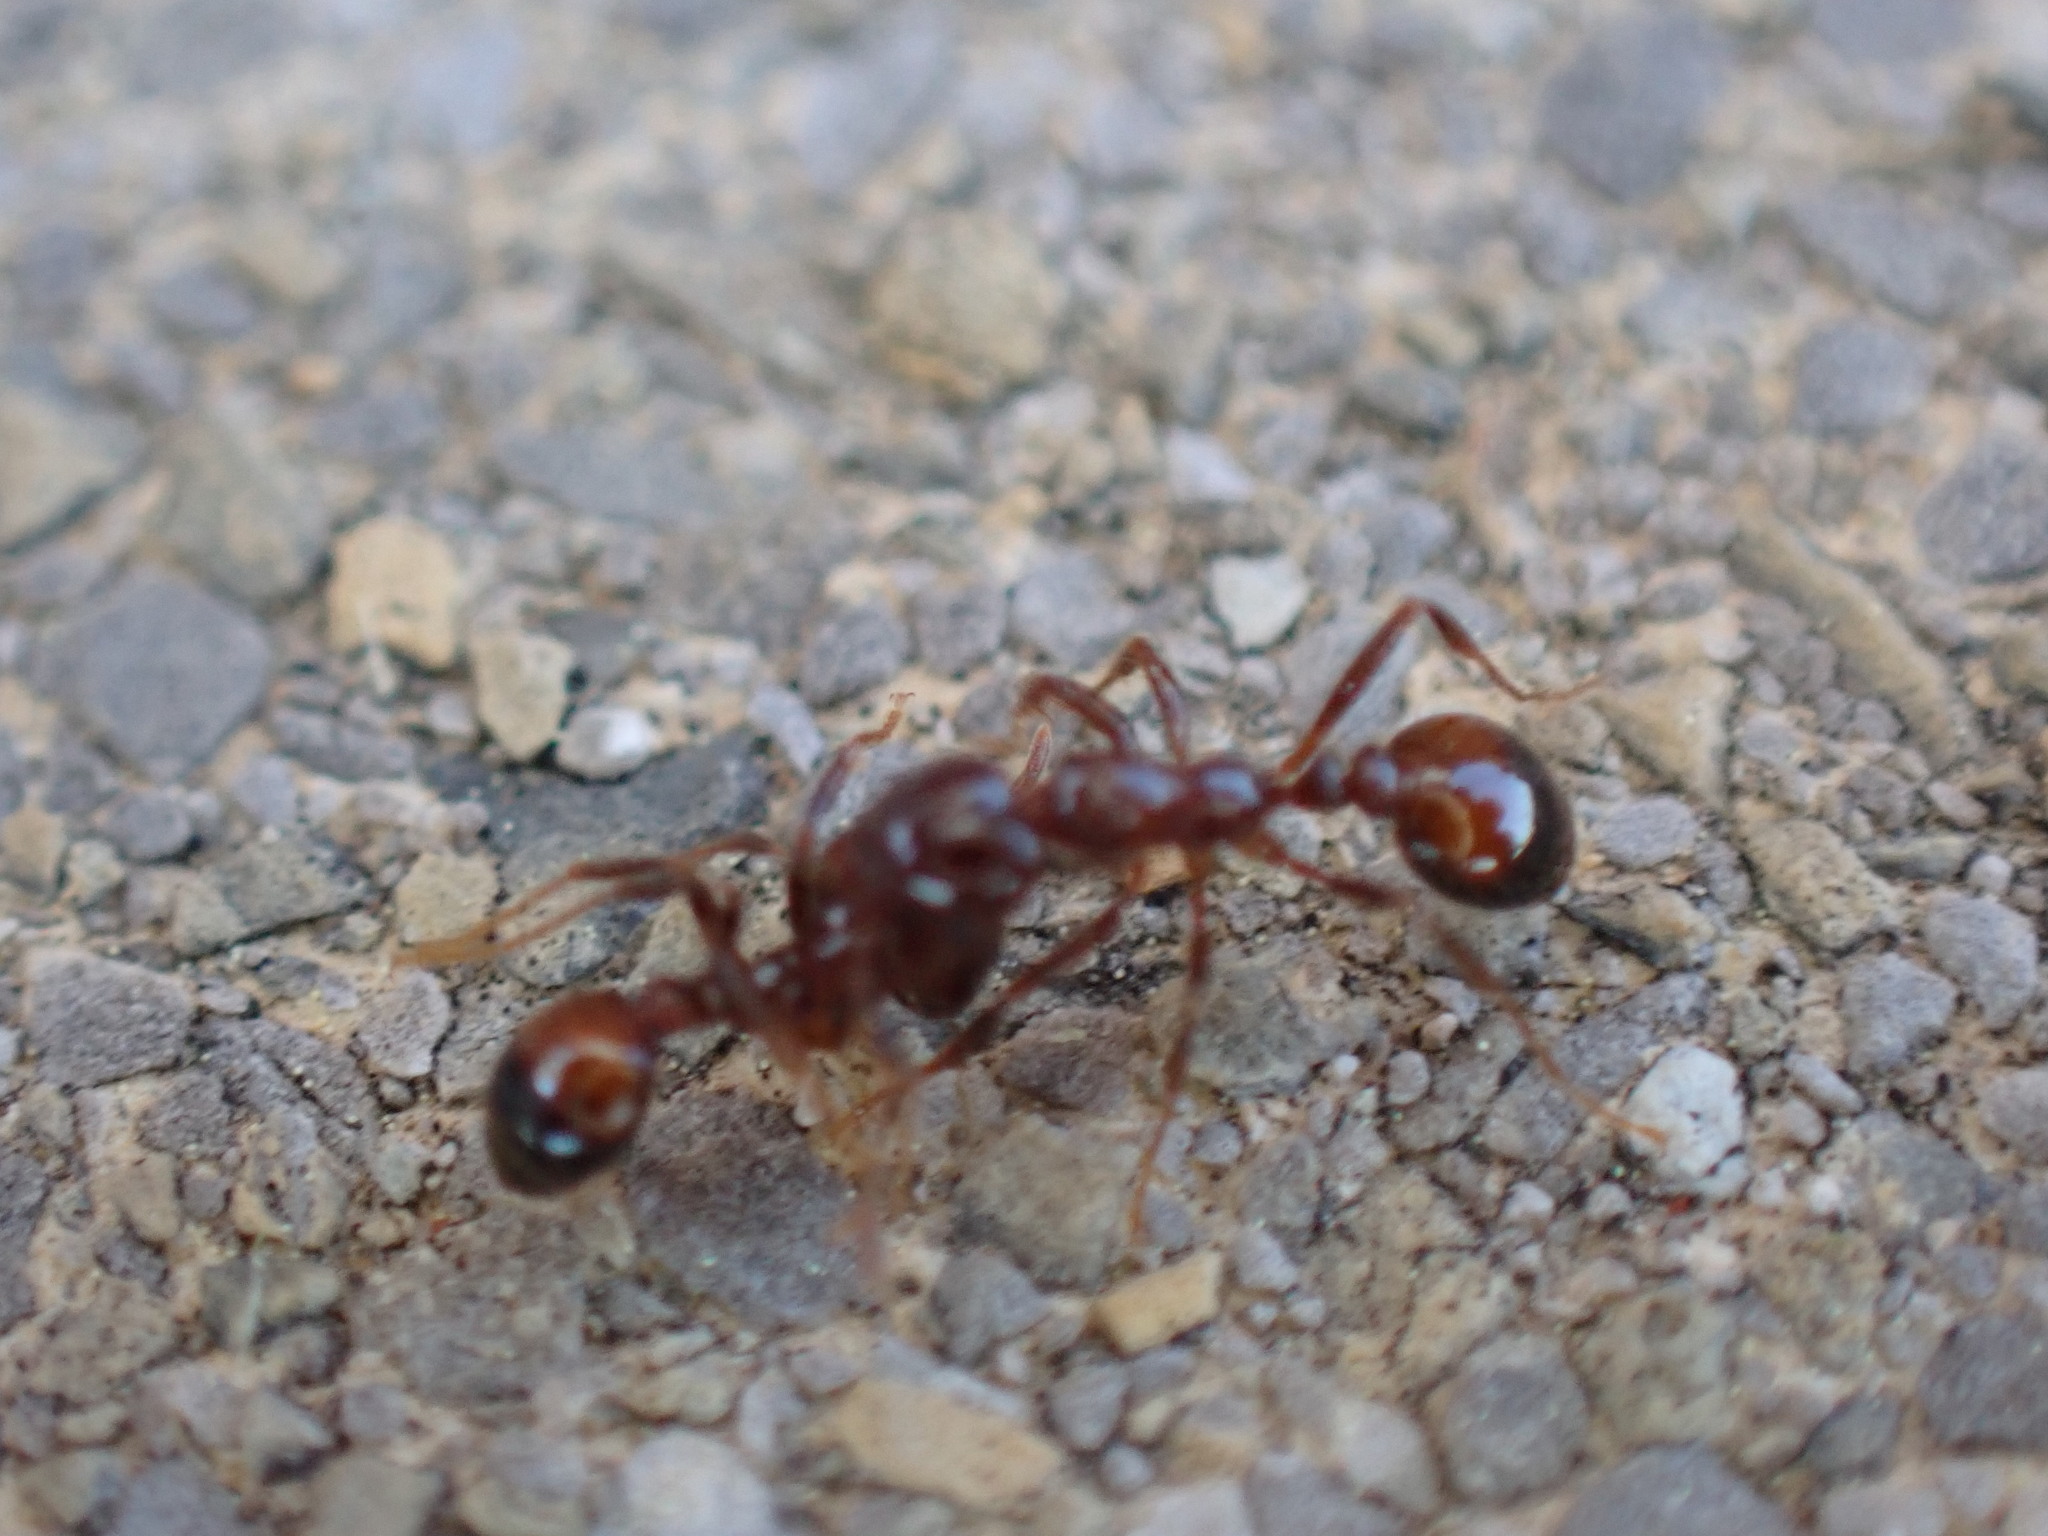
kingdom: Animalia
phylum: Arthropoda
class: Insecta
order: Hymenoptera
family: Formicidae
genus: Solenopsis
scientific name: Solenopsis
